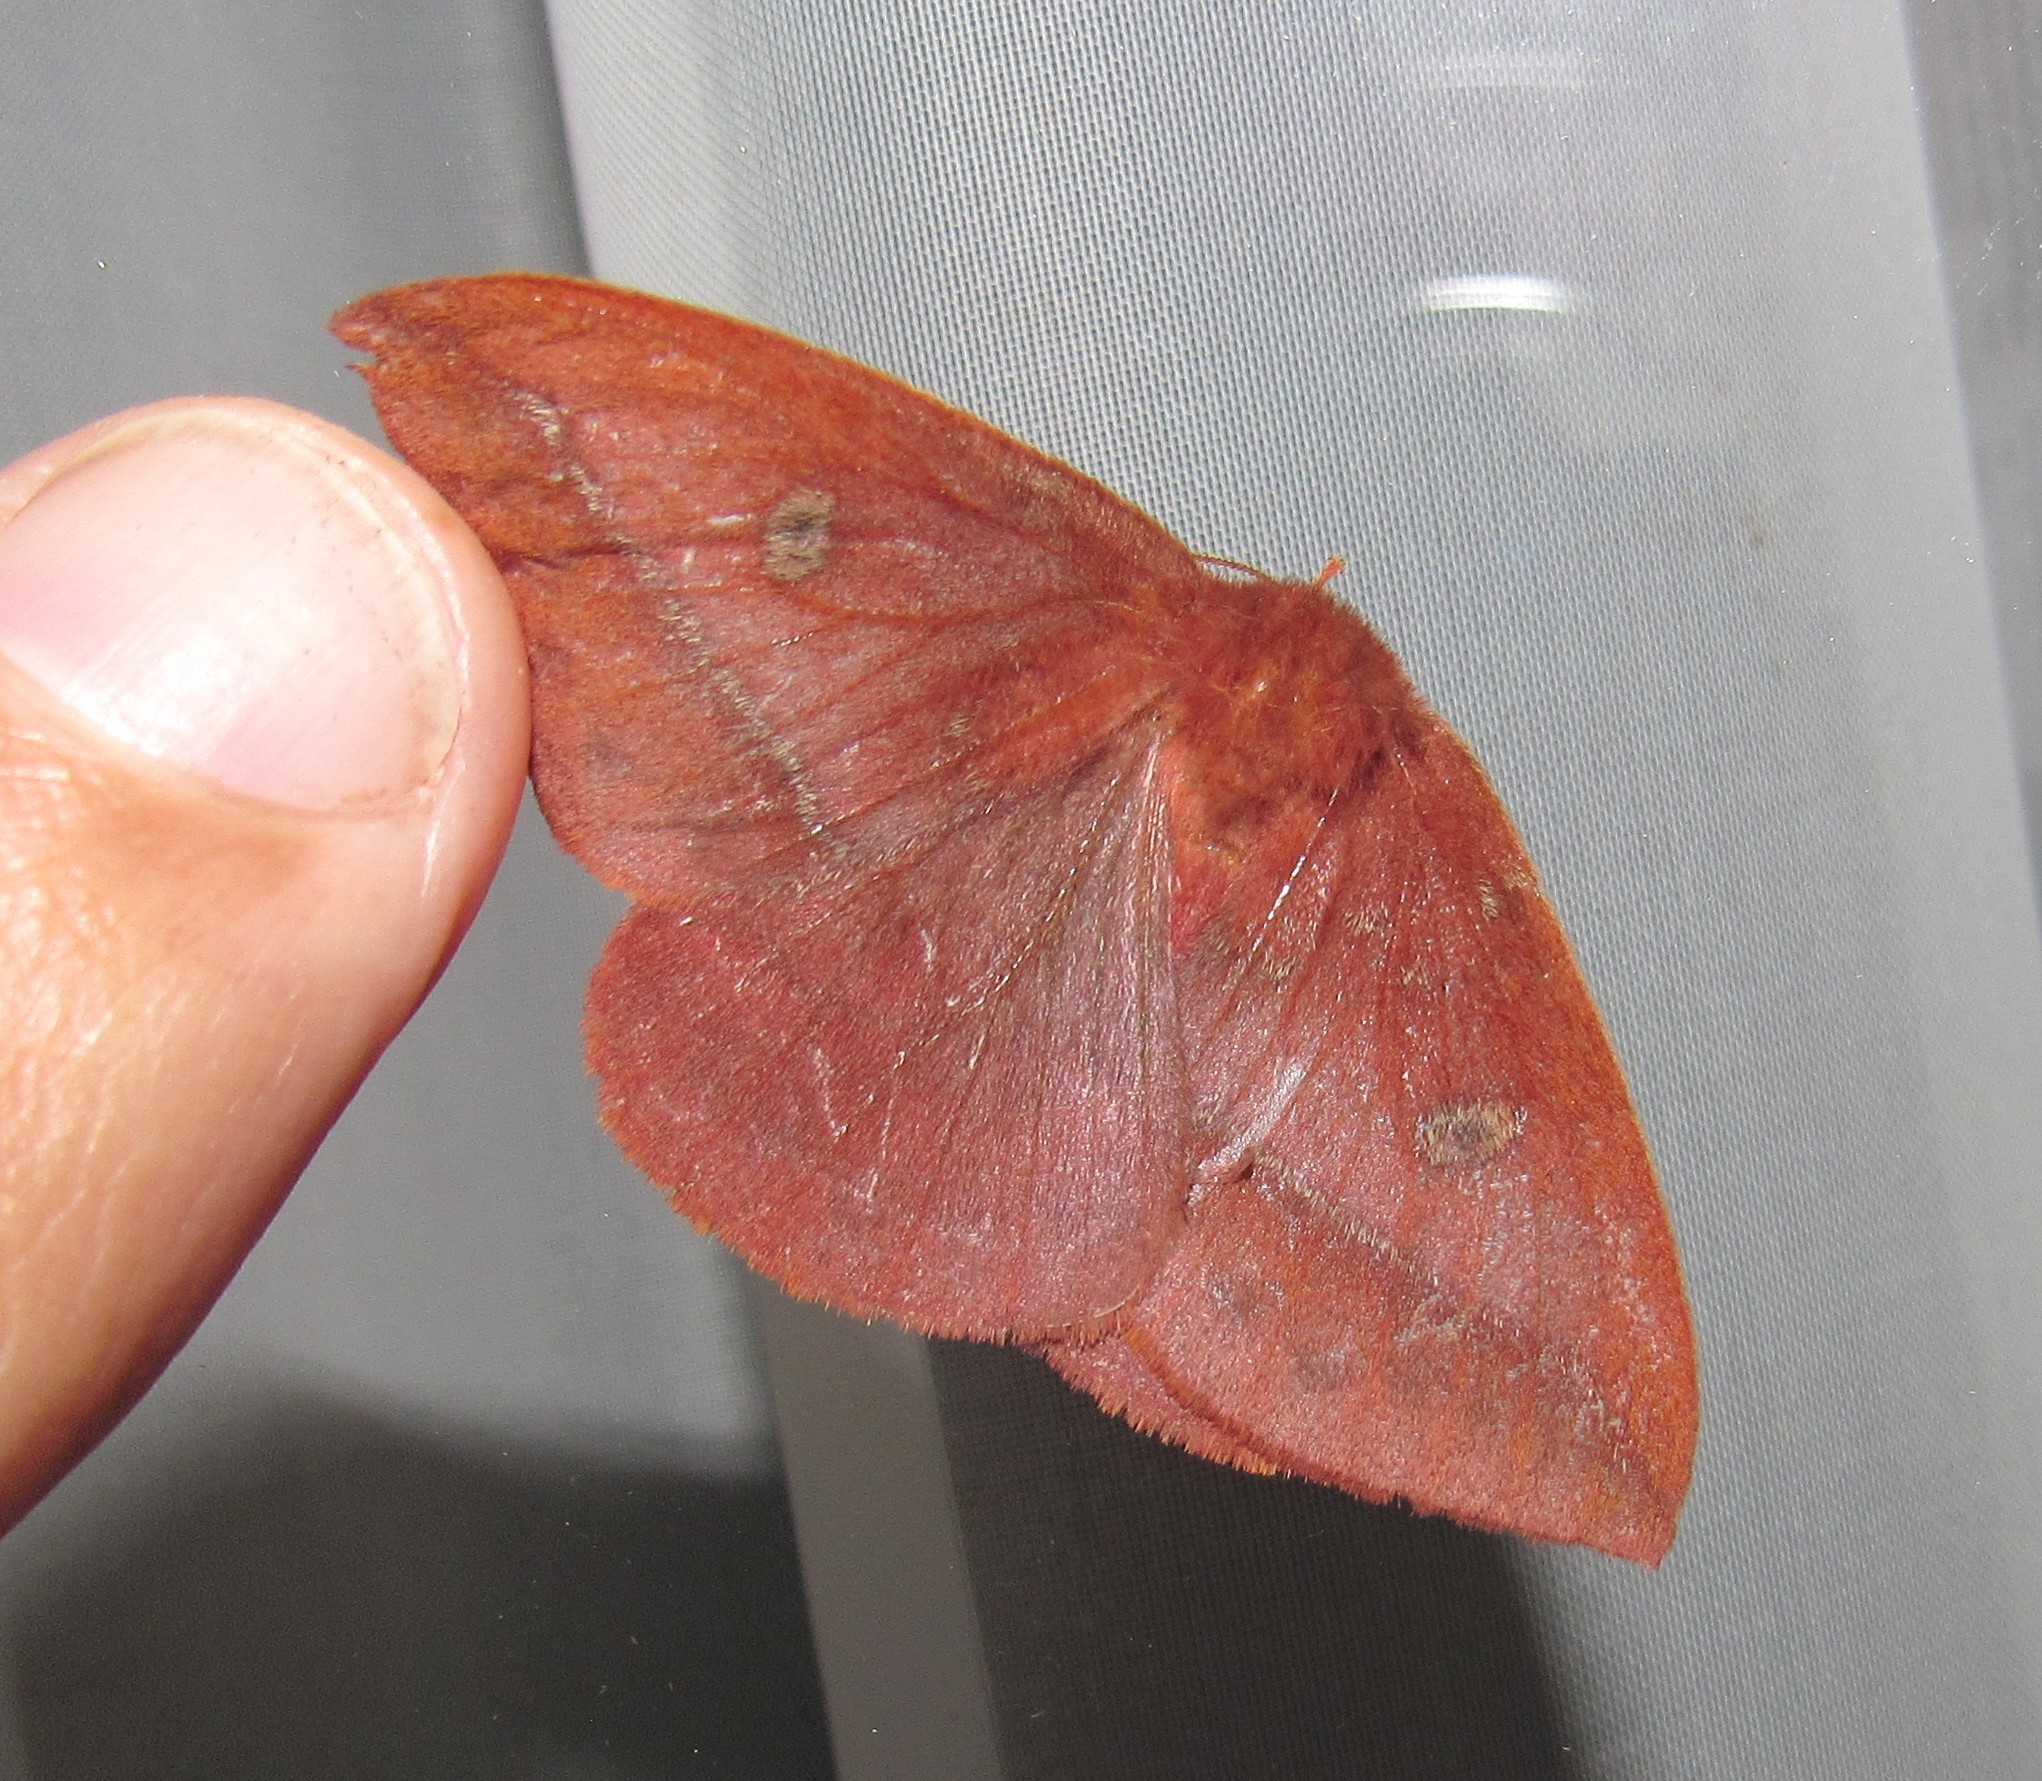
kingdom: Animalia
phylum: Arthropoda
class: Insecta
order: Lepidoptera
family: Saturniidae
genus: Catacantha
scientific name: Catacantha ferruginea
